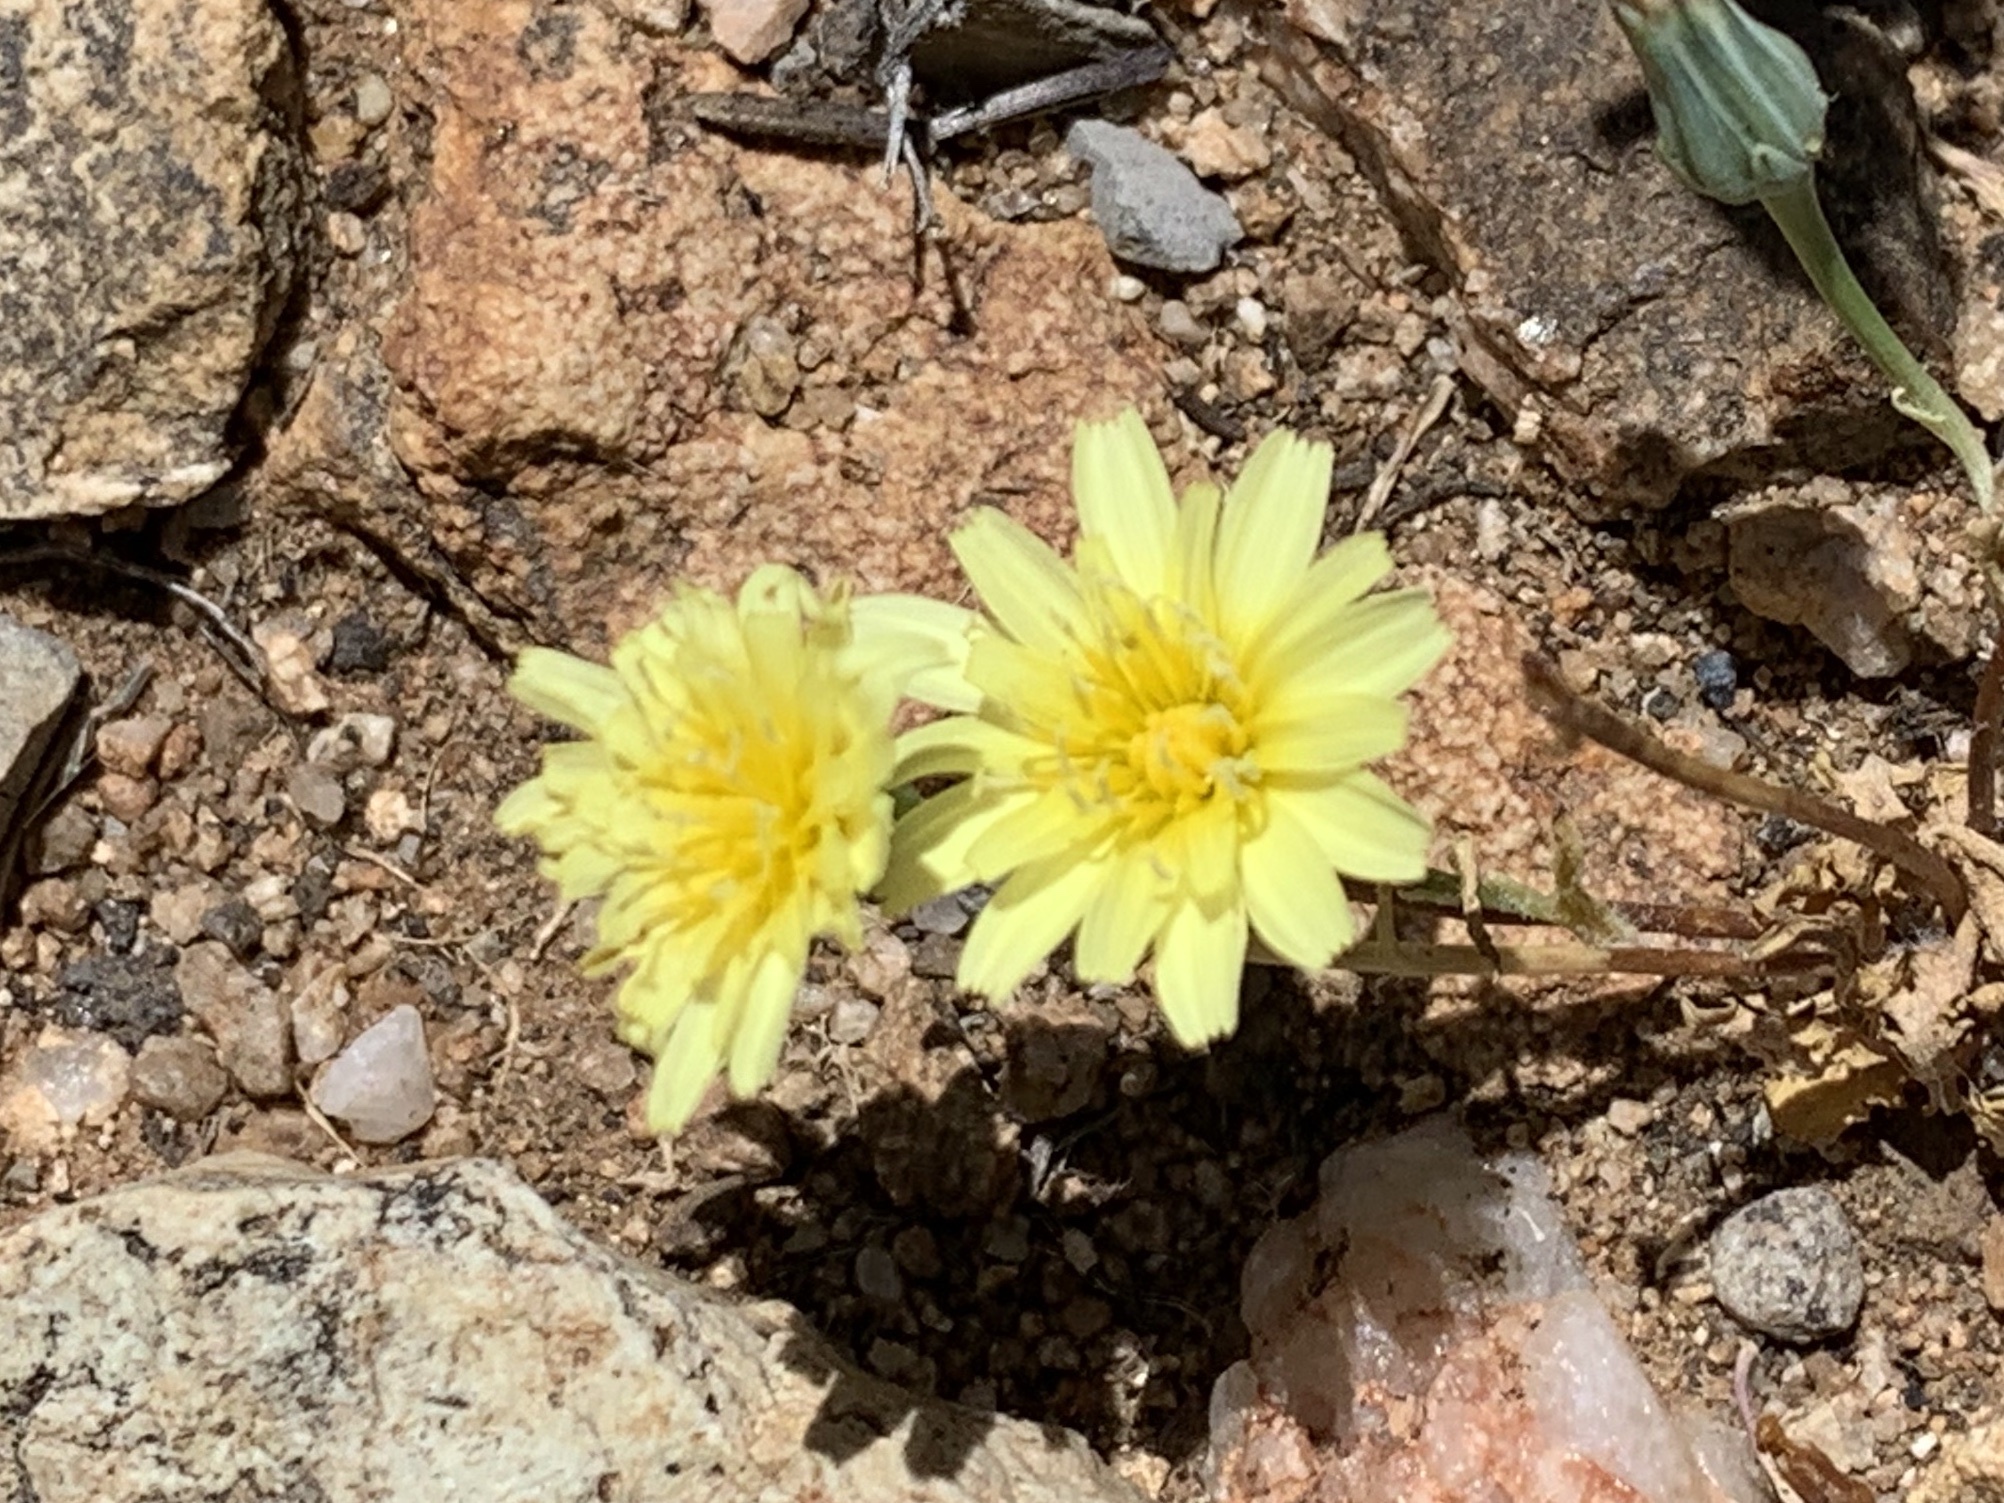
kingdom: Plantae
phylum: Tracheophyta
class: Magnoliopsida
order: Asterales
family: Asteraceae
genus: Malacothrix
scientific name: Malacothrix fendleri
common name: Fendler's desert-dandelion
